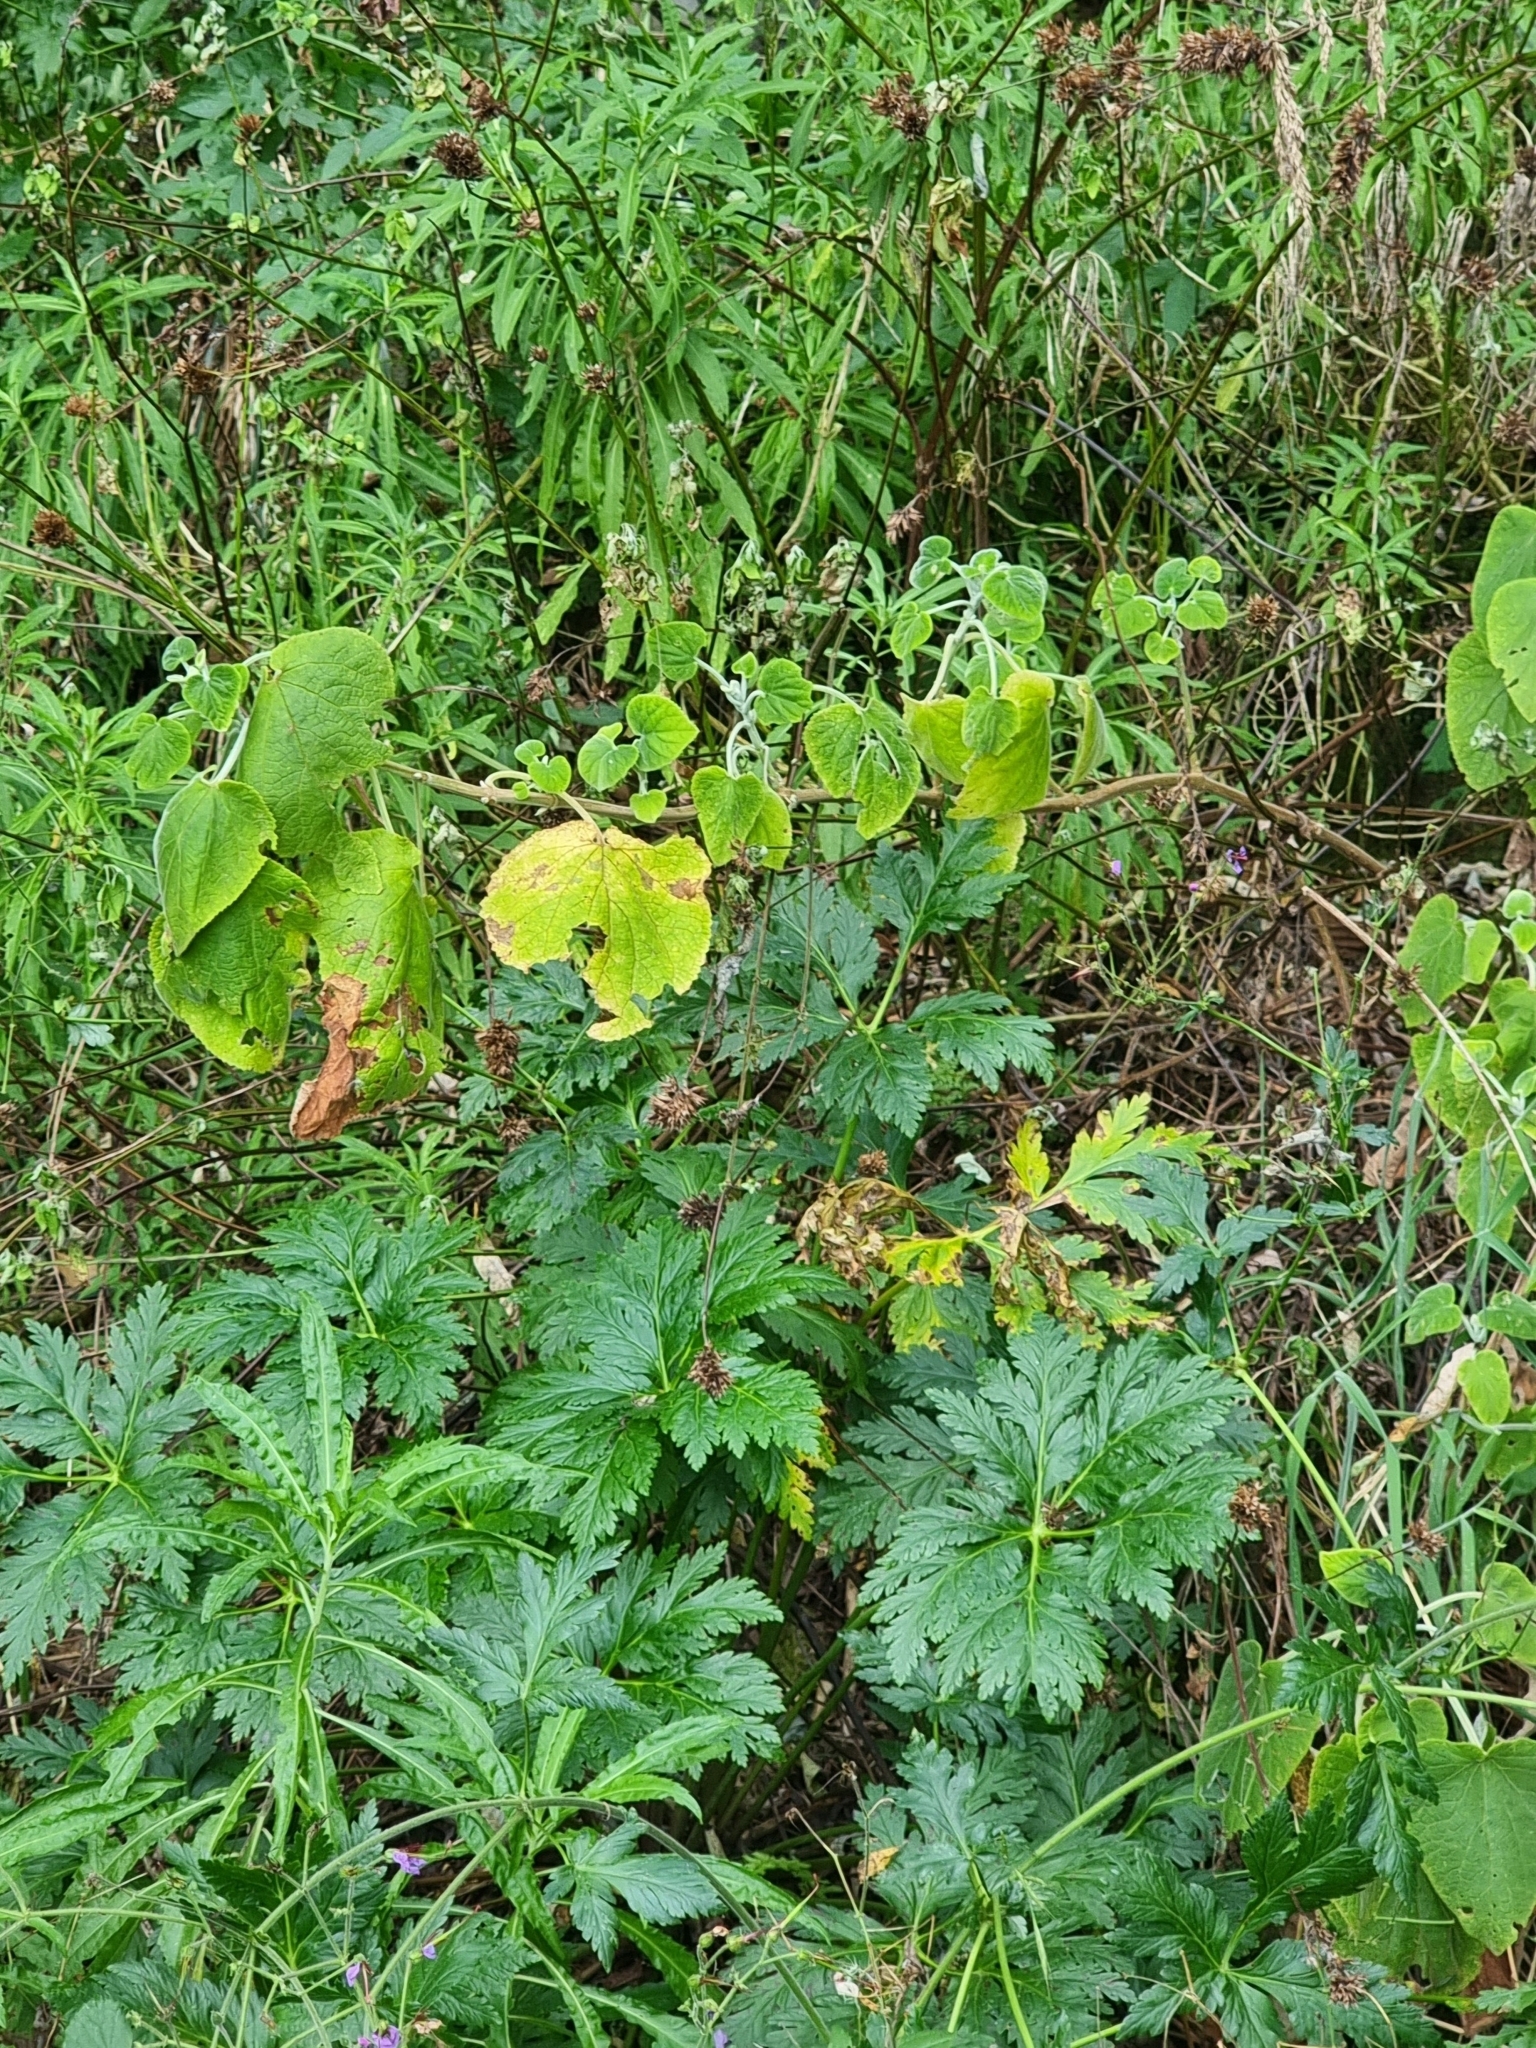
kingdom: Plantae
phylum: Tracheophyta
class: Magnoliopsida
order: Lamiales
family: Lamiaceae
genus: Teucrium
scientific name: Teucrium abutiloides
